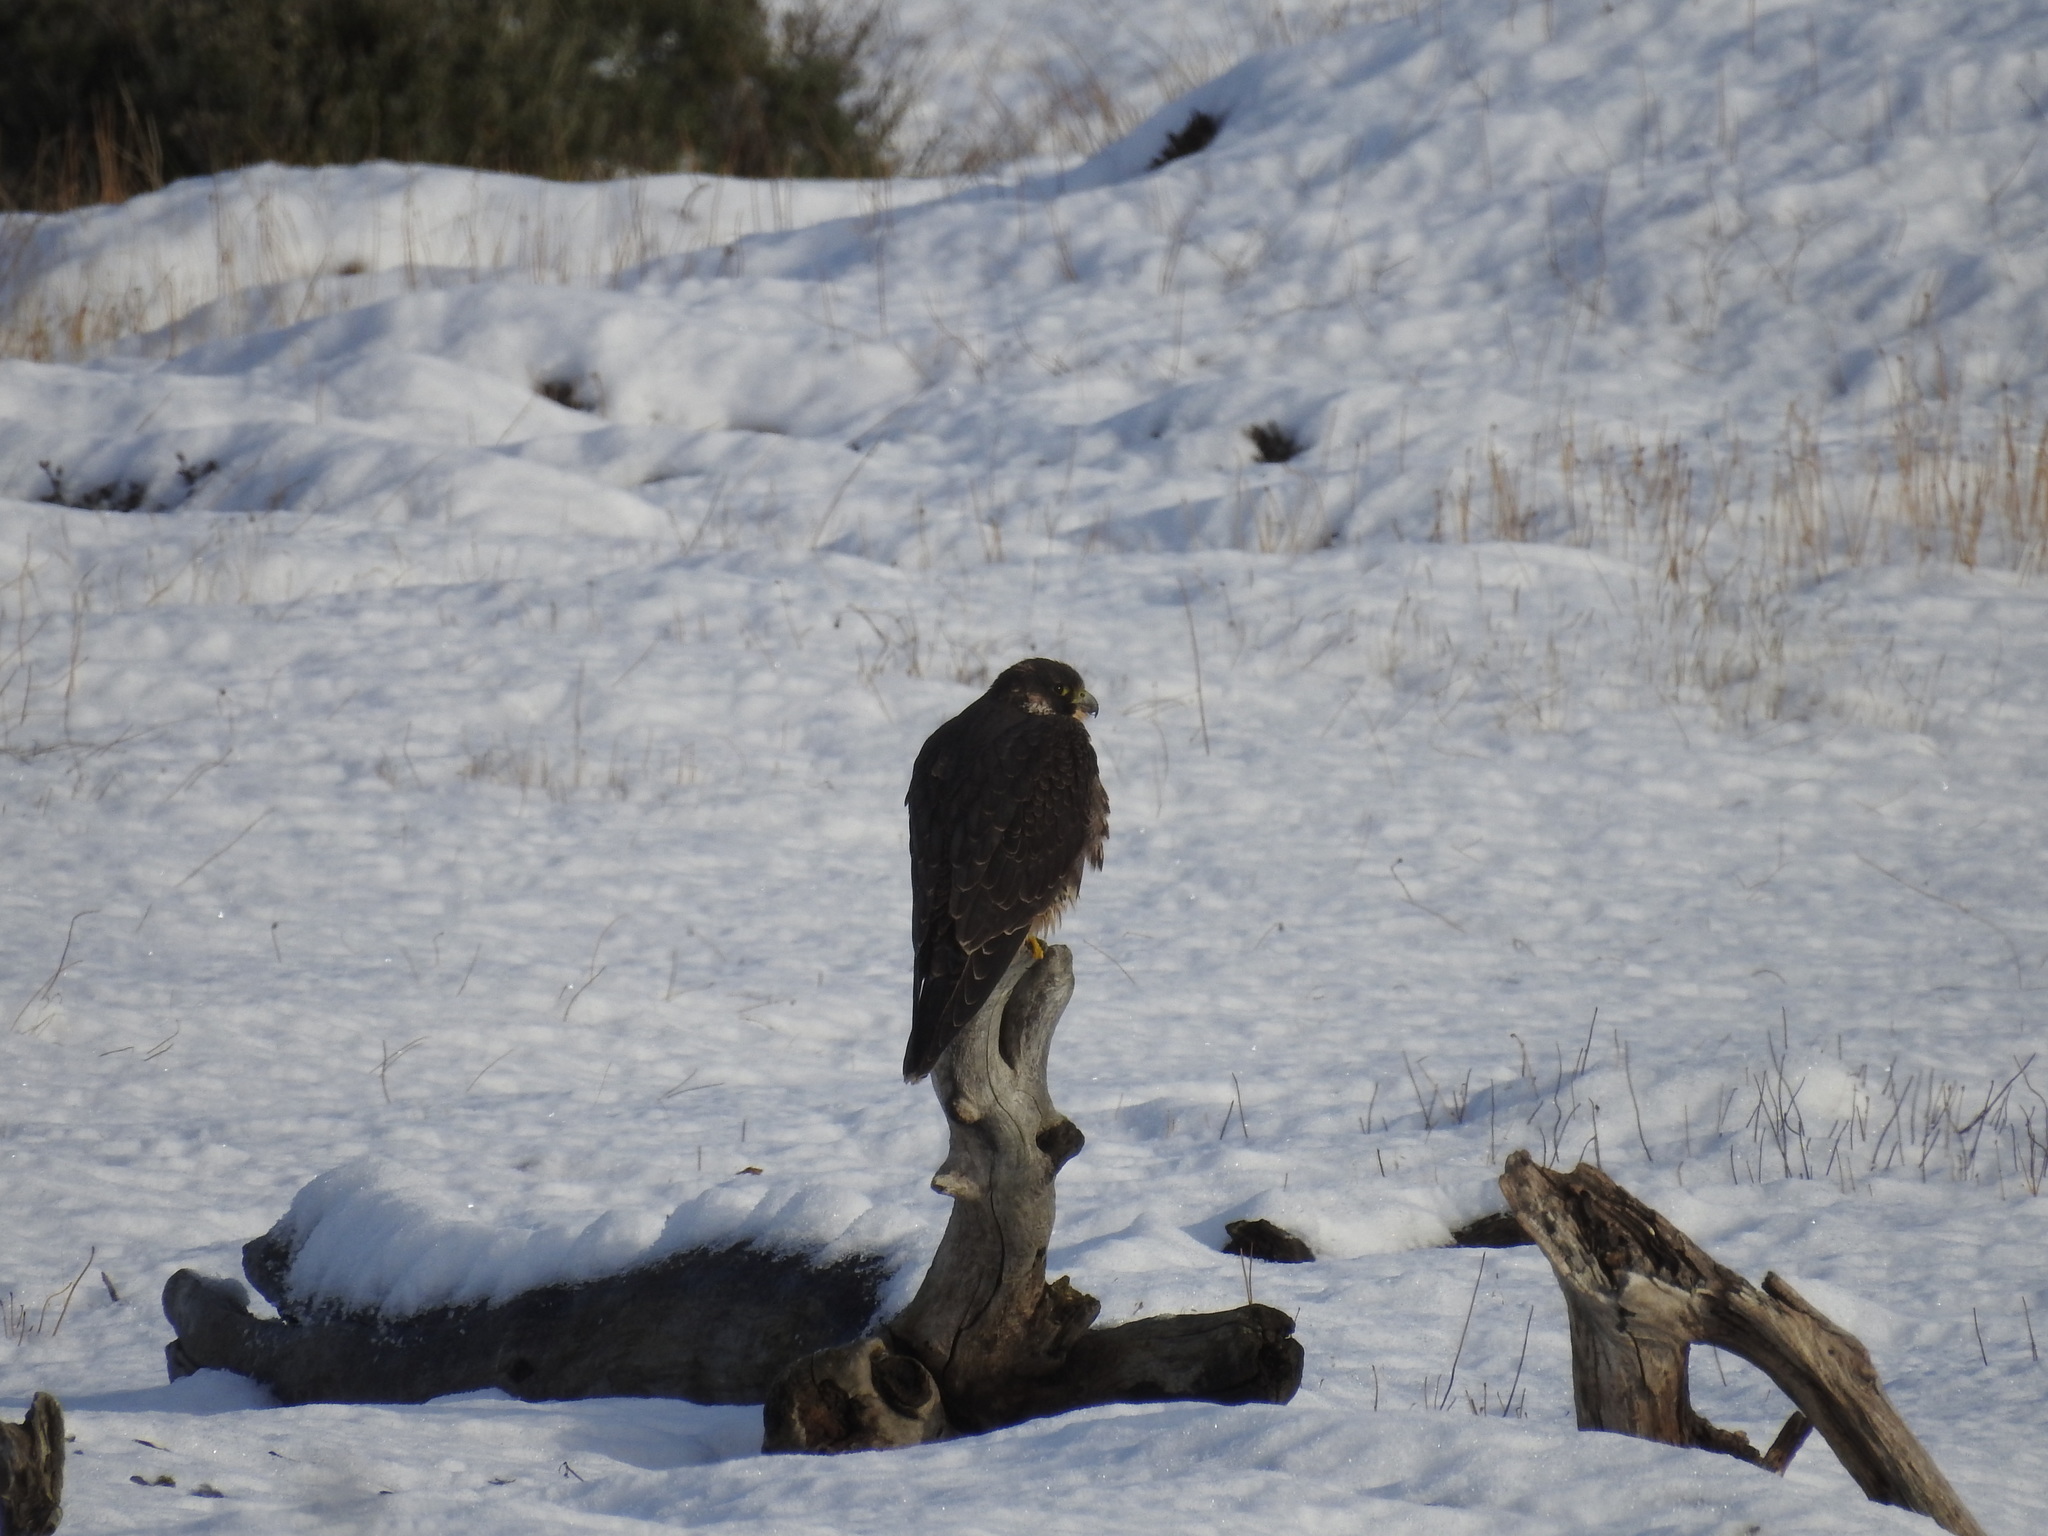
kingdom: Animalia
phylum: Chordata
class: Aves
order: Falconiformes
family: Falconidae
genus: Falco
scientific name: Falco peregrinus
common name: Peregrine falcon
